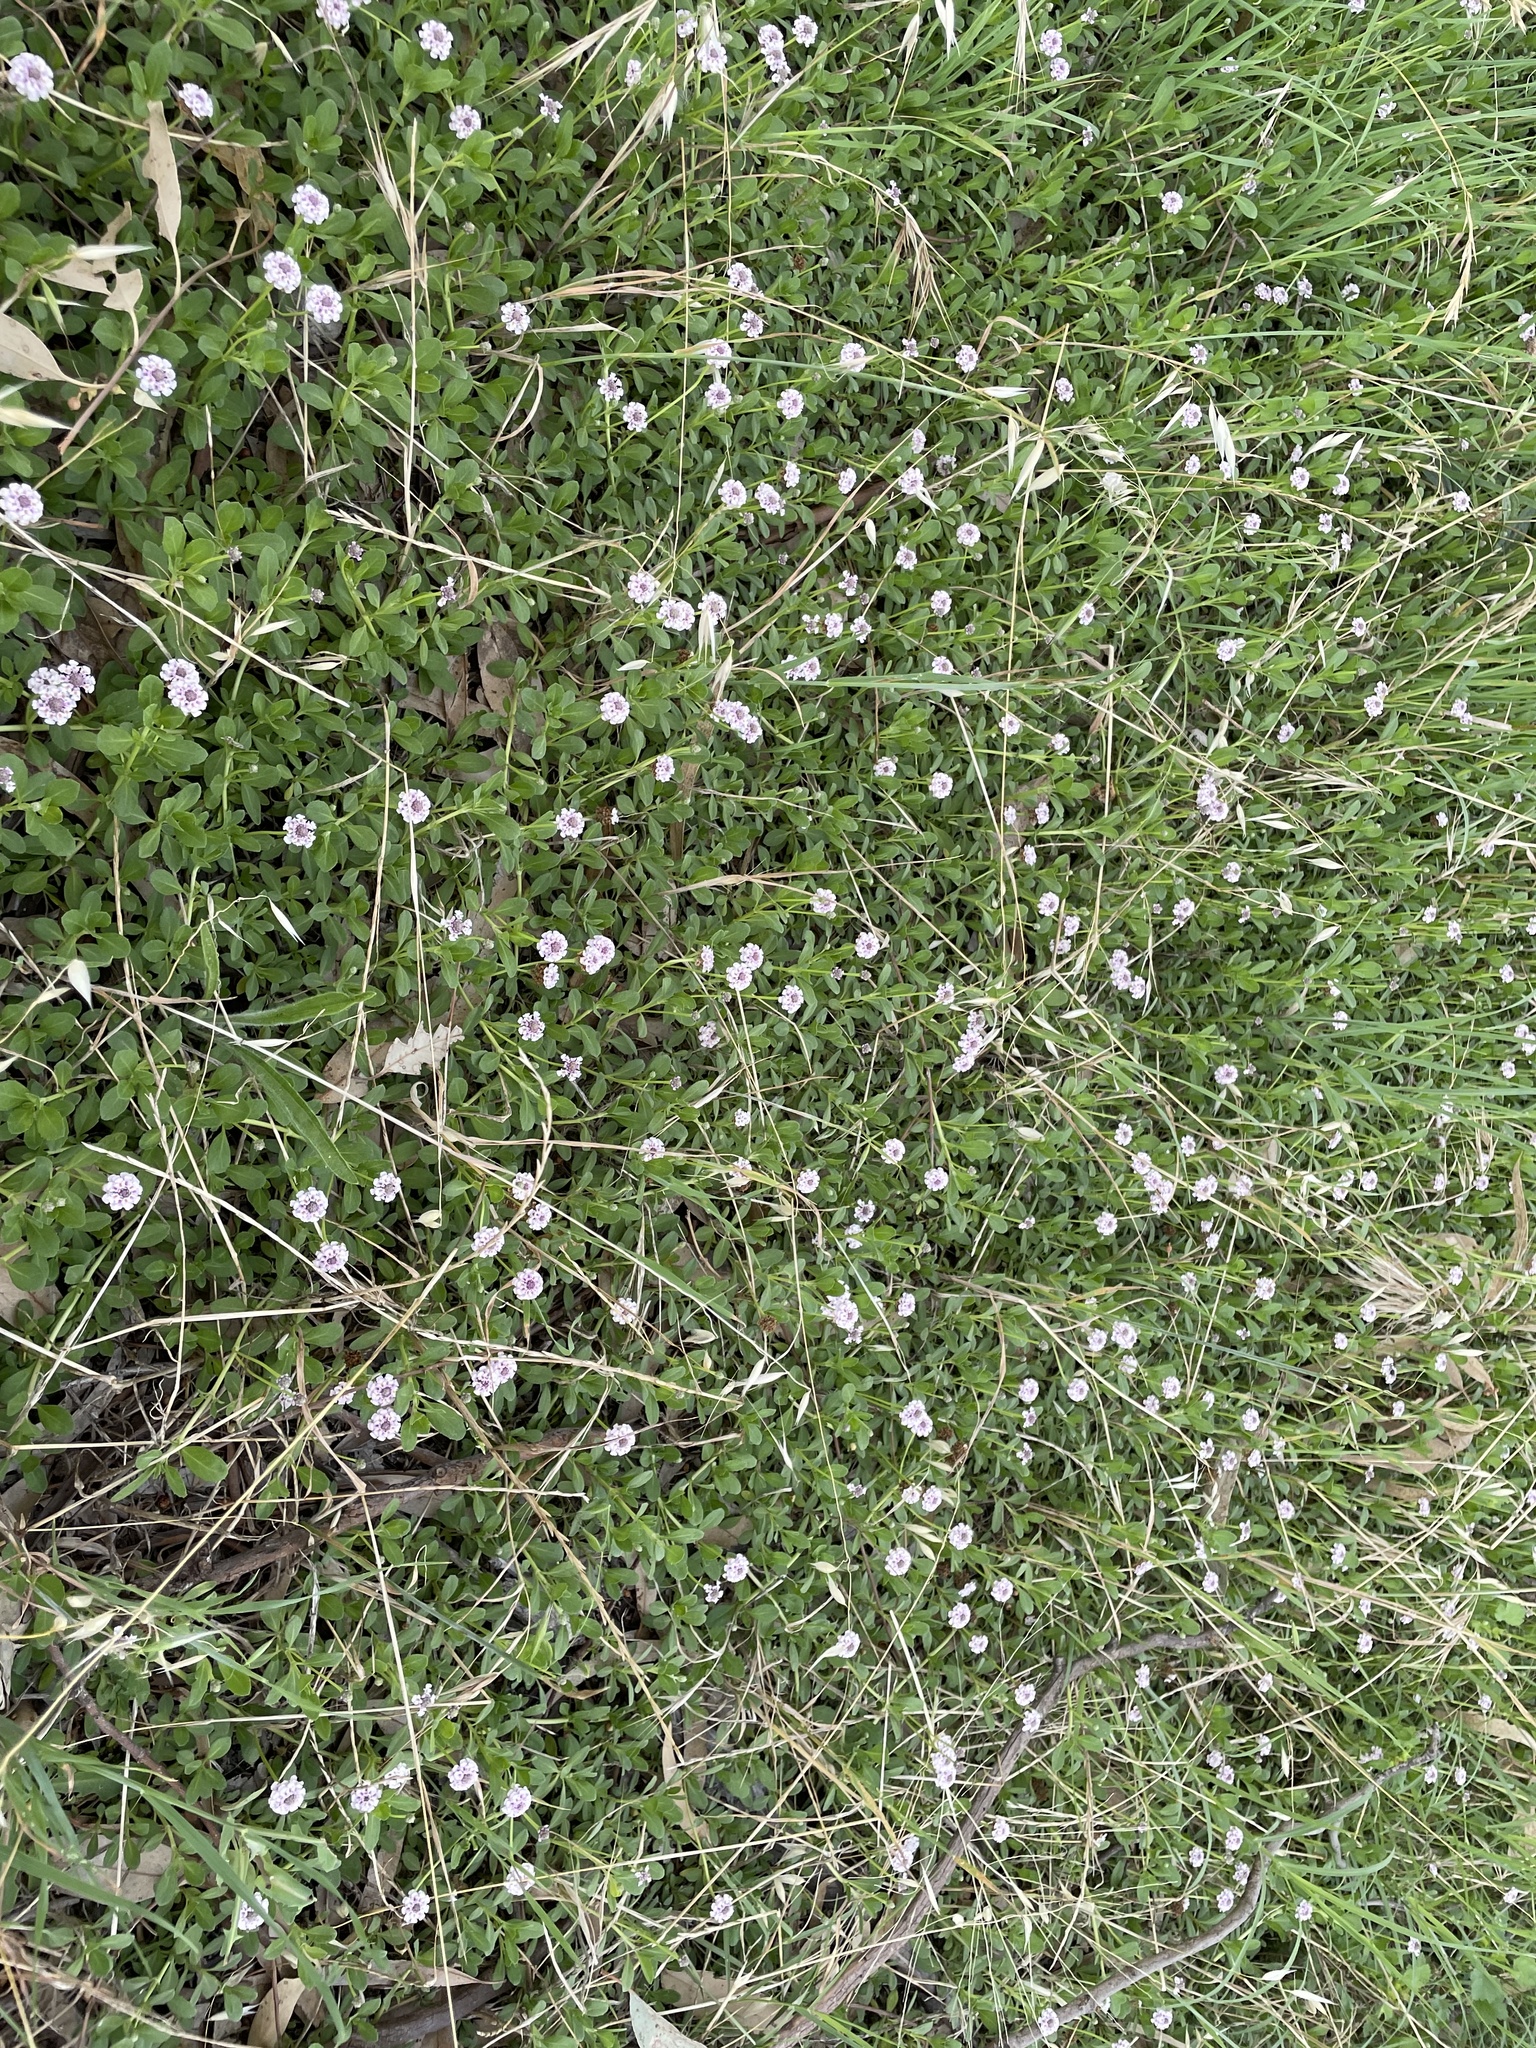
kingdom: Plantae
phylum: Tracheophyta
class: Magnoliopsida
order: Lamiales
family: Verbenaceae
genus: Phyla
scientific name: Phyla nodiflora
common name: Frogfruit
